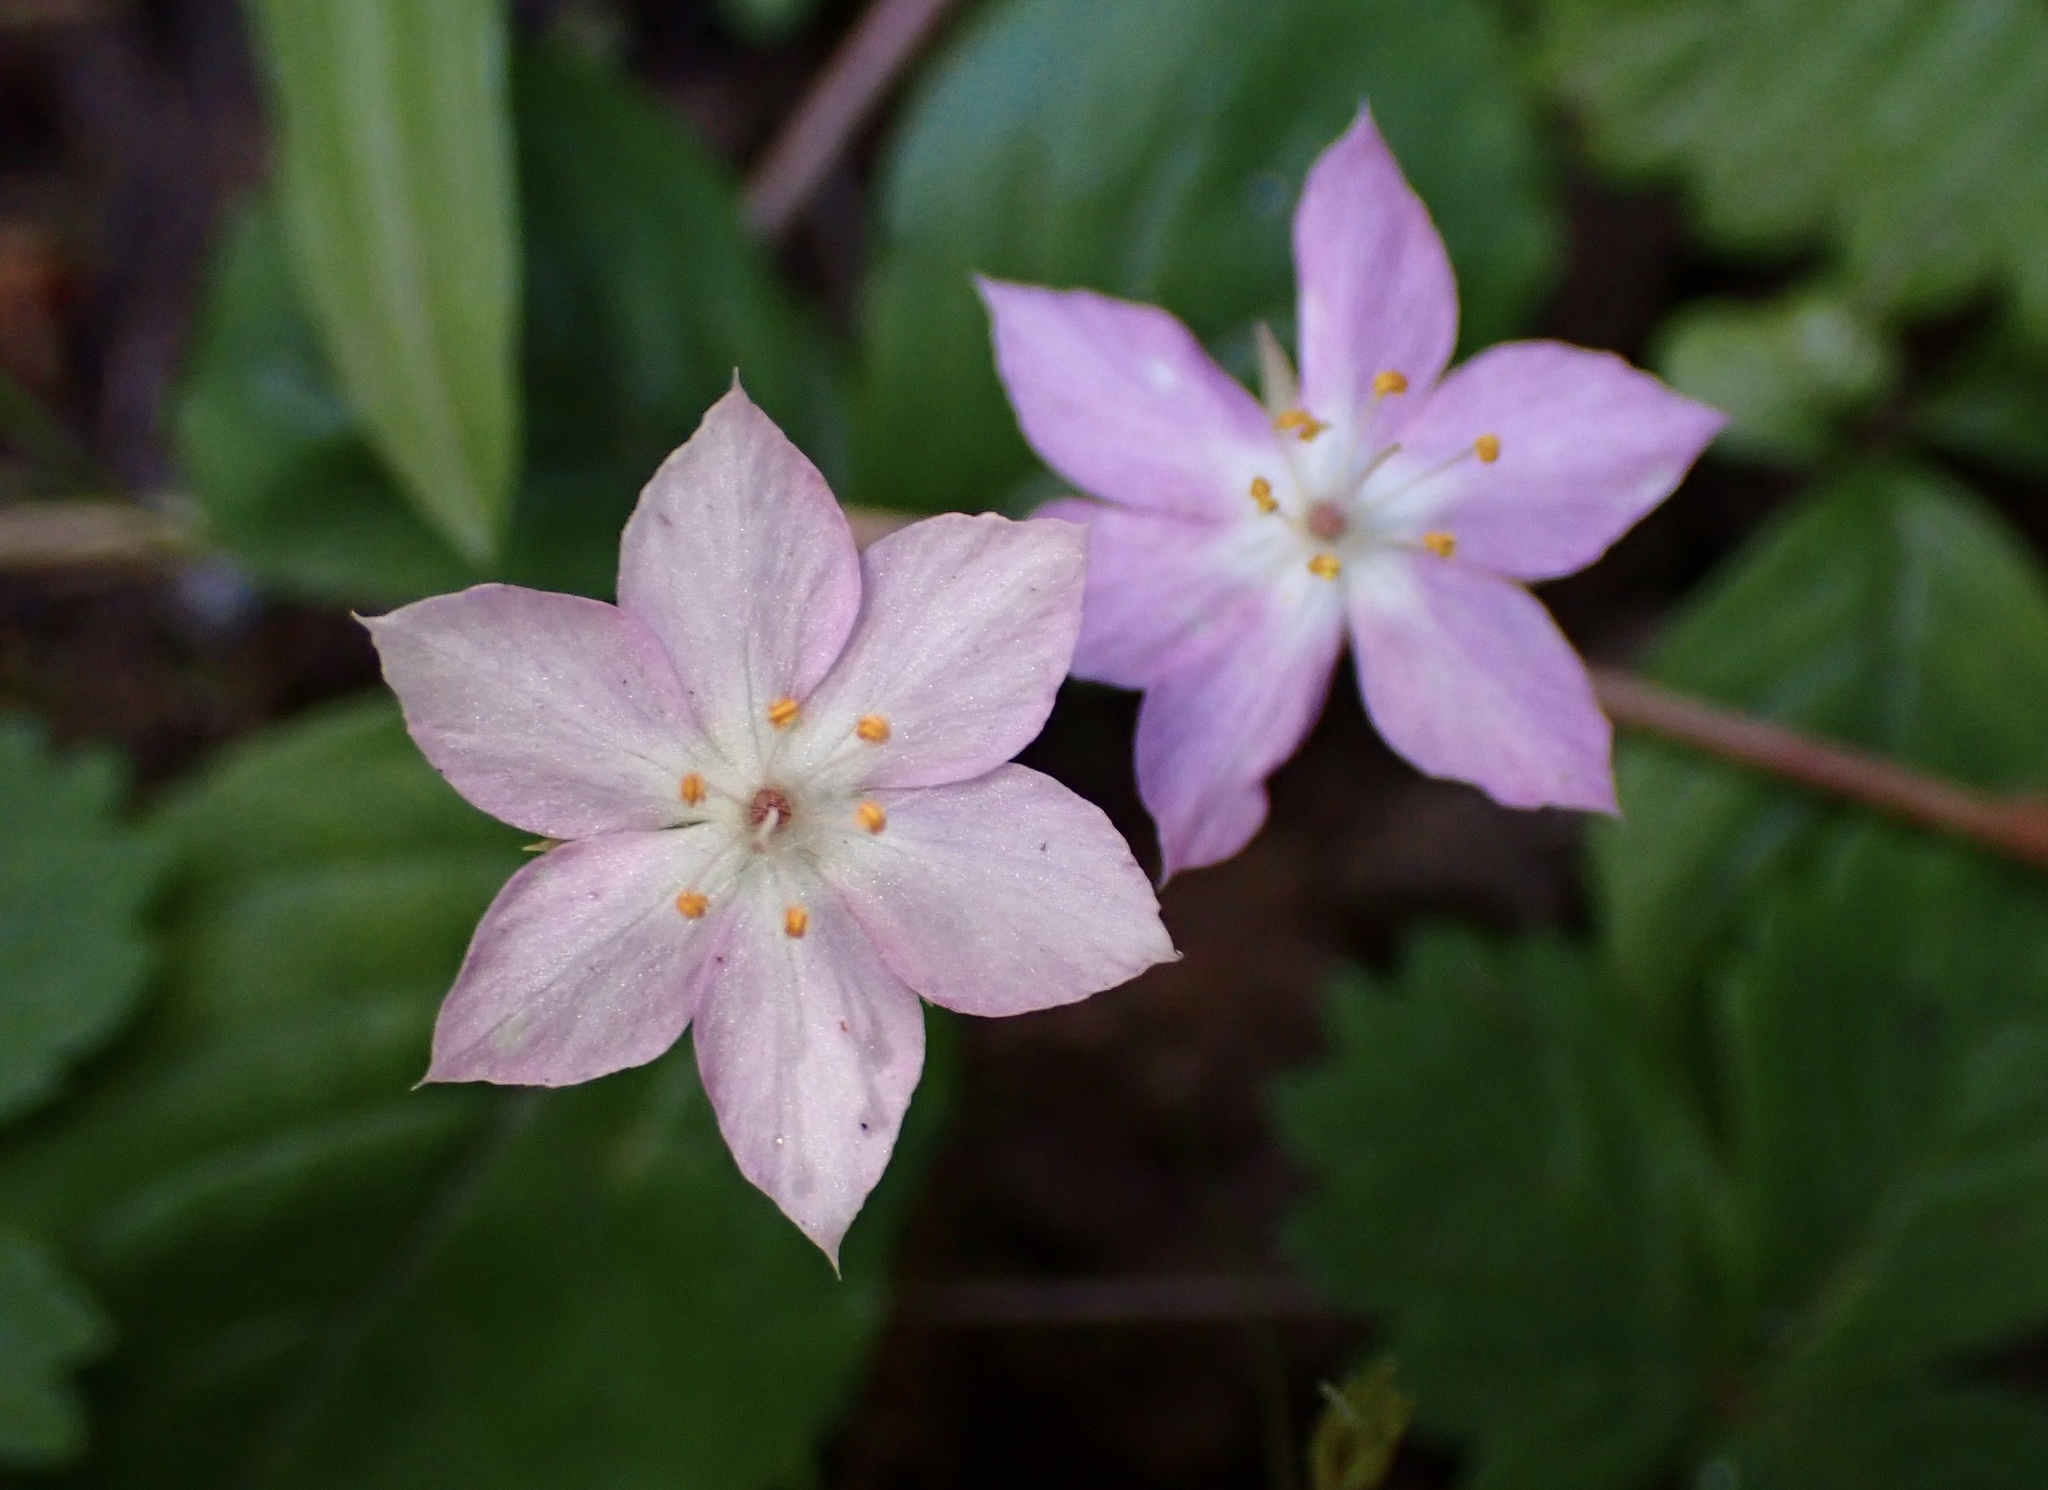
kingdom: Plantae
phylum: Tracheophyta
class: Magnoliopsida
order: Ericales
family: Primulaceae
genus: Lysimachia
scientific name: Lysimachia latifolia
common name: Pacific starflower
